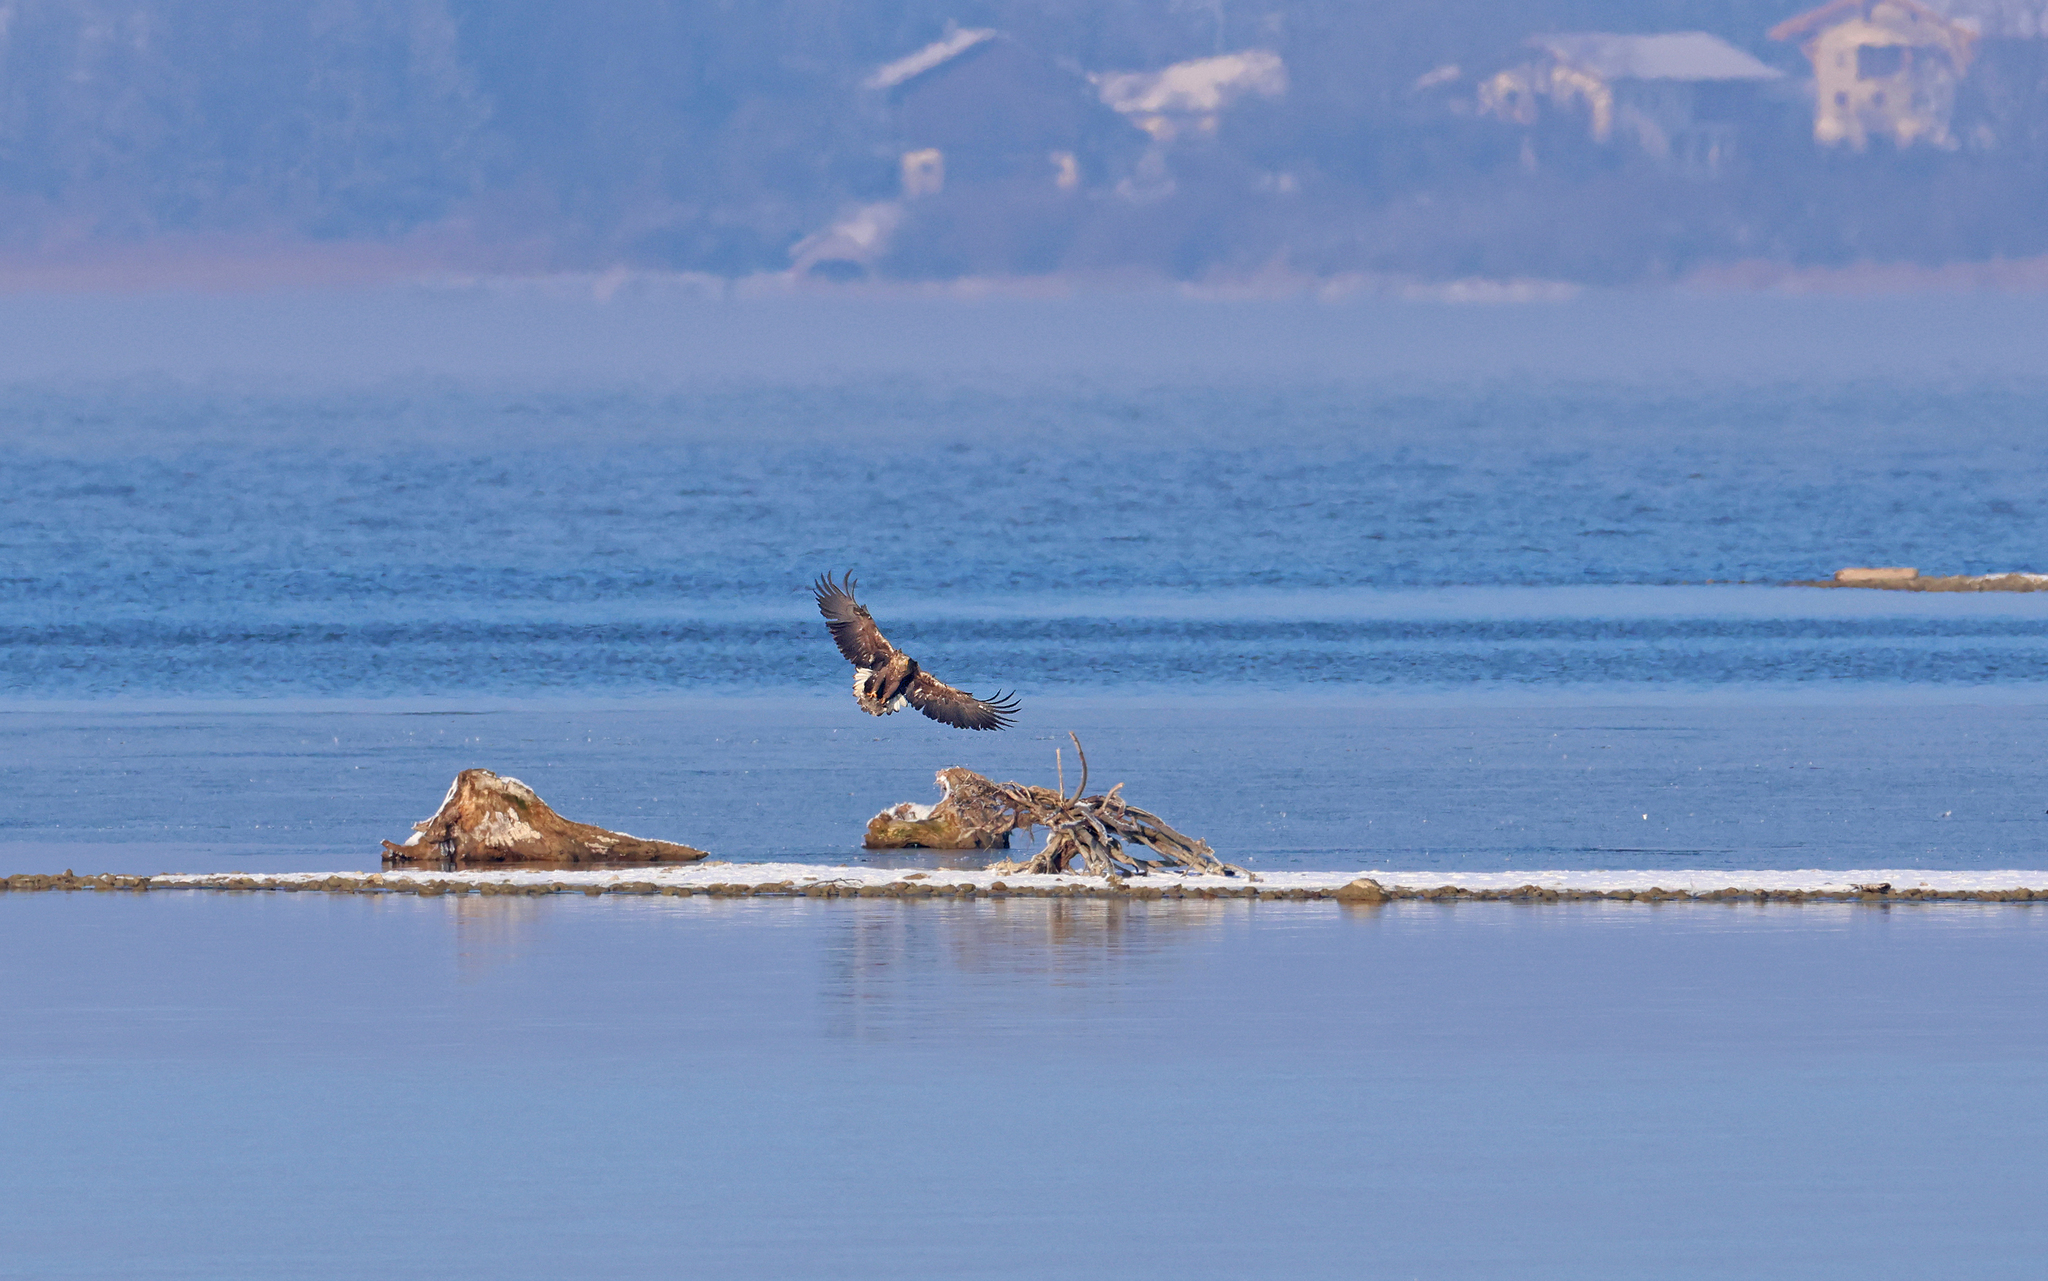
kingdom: Animalia
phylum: Chordata
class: Aves
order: Accipitriformes
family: Accipitridae
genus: Haliaeetus
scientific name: Haliaeetus albicilla
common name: White-tailed eagle
